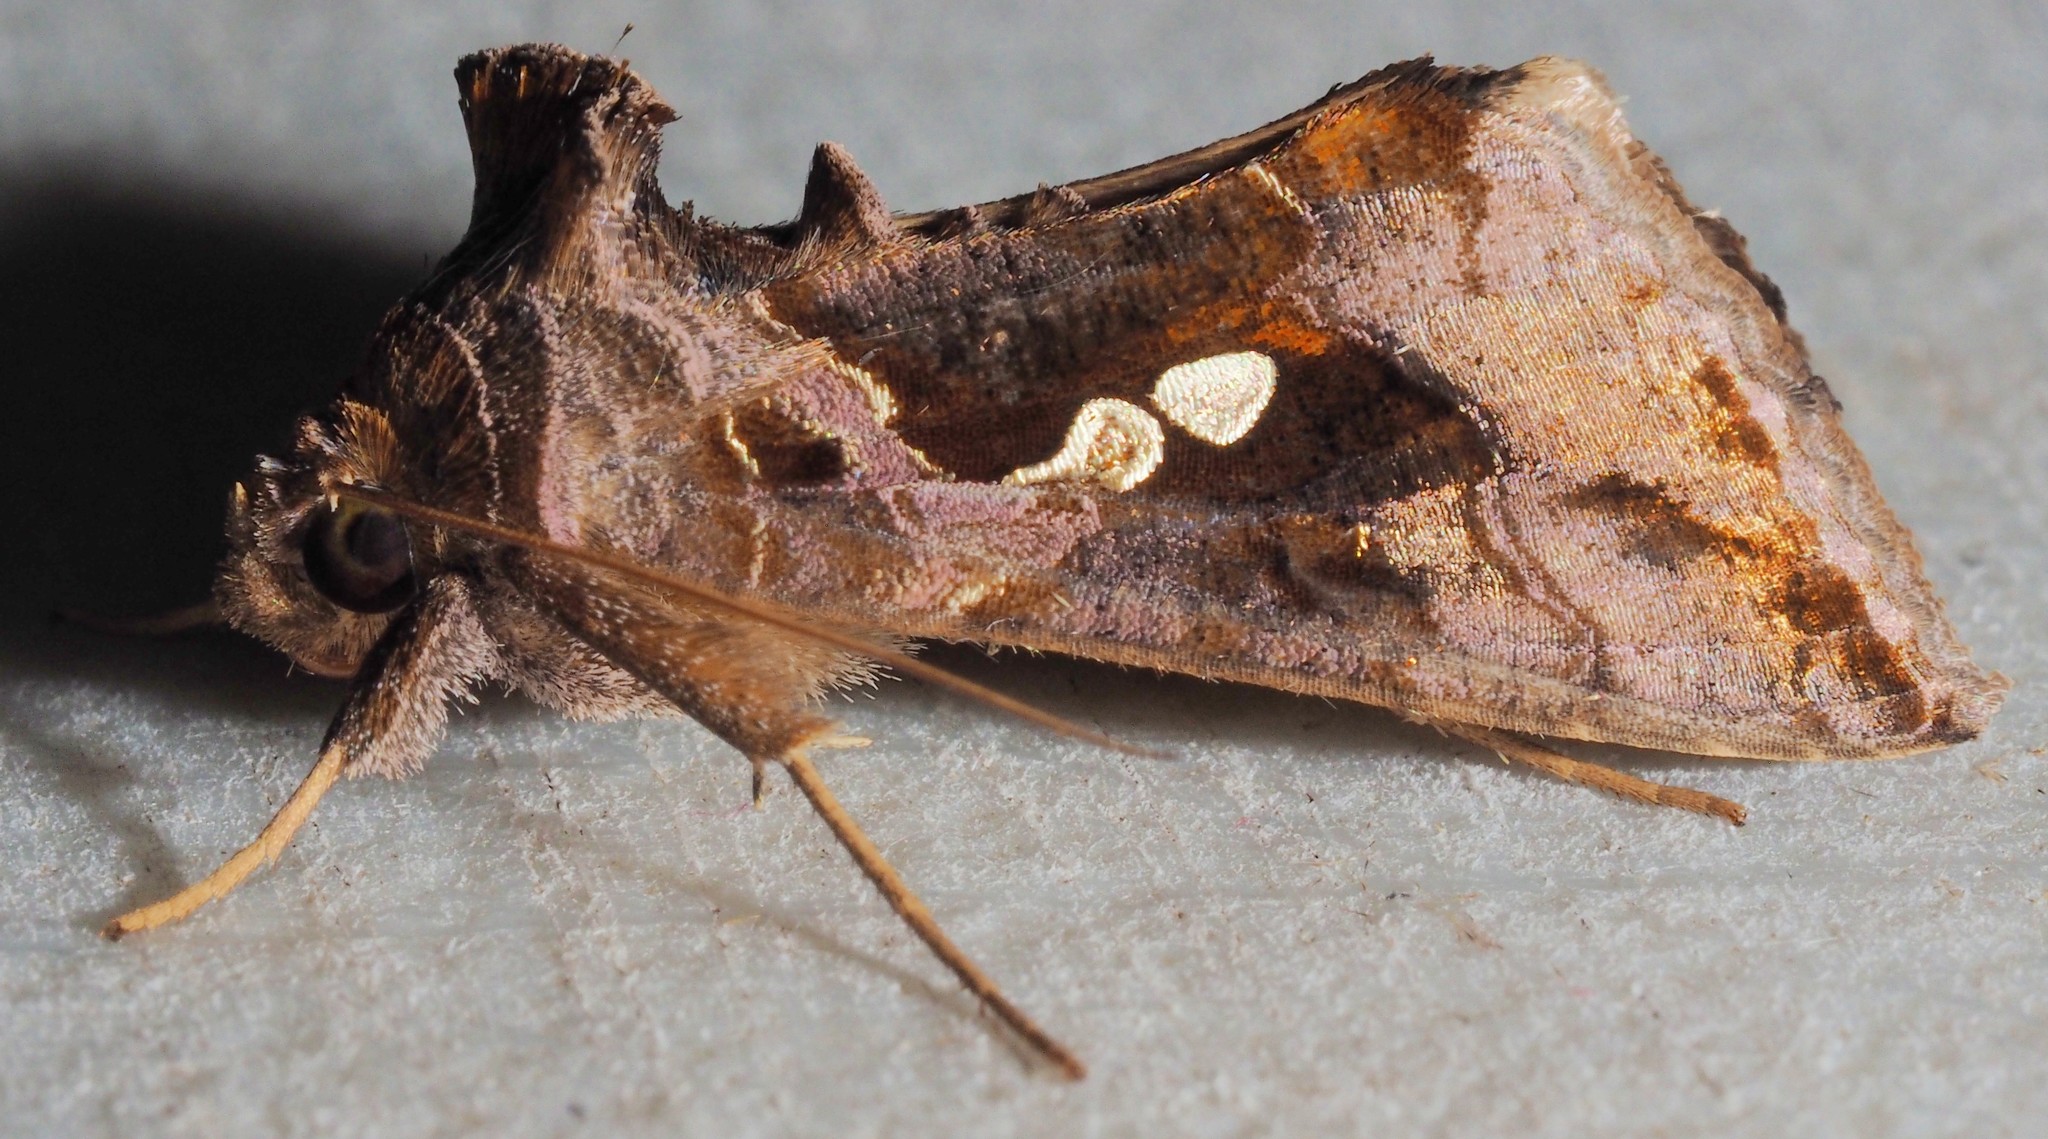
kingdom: Animalia
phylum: Arthropoda
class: Insecta
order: Lepidoptera
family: Noctuidae
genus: Chrysodeixis
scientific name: Chrysodeixis eriosoma
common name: Green garden looper
